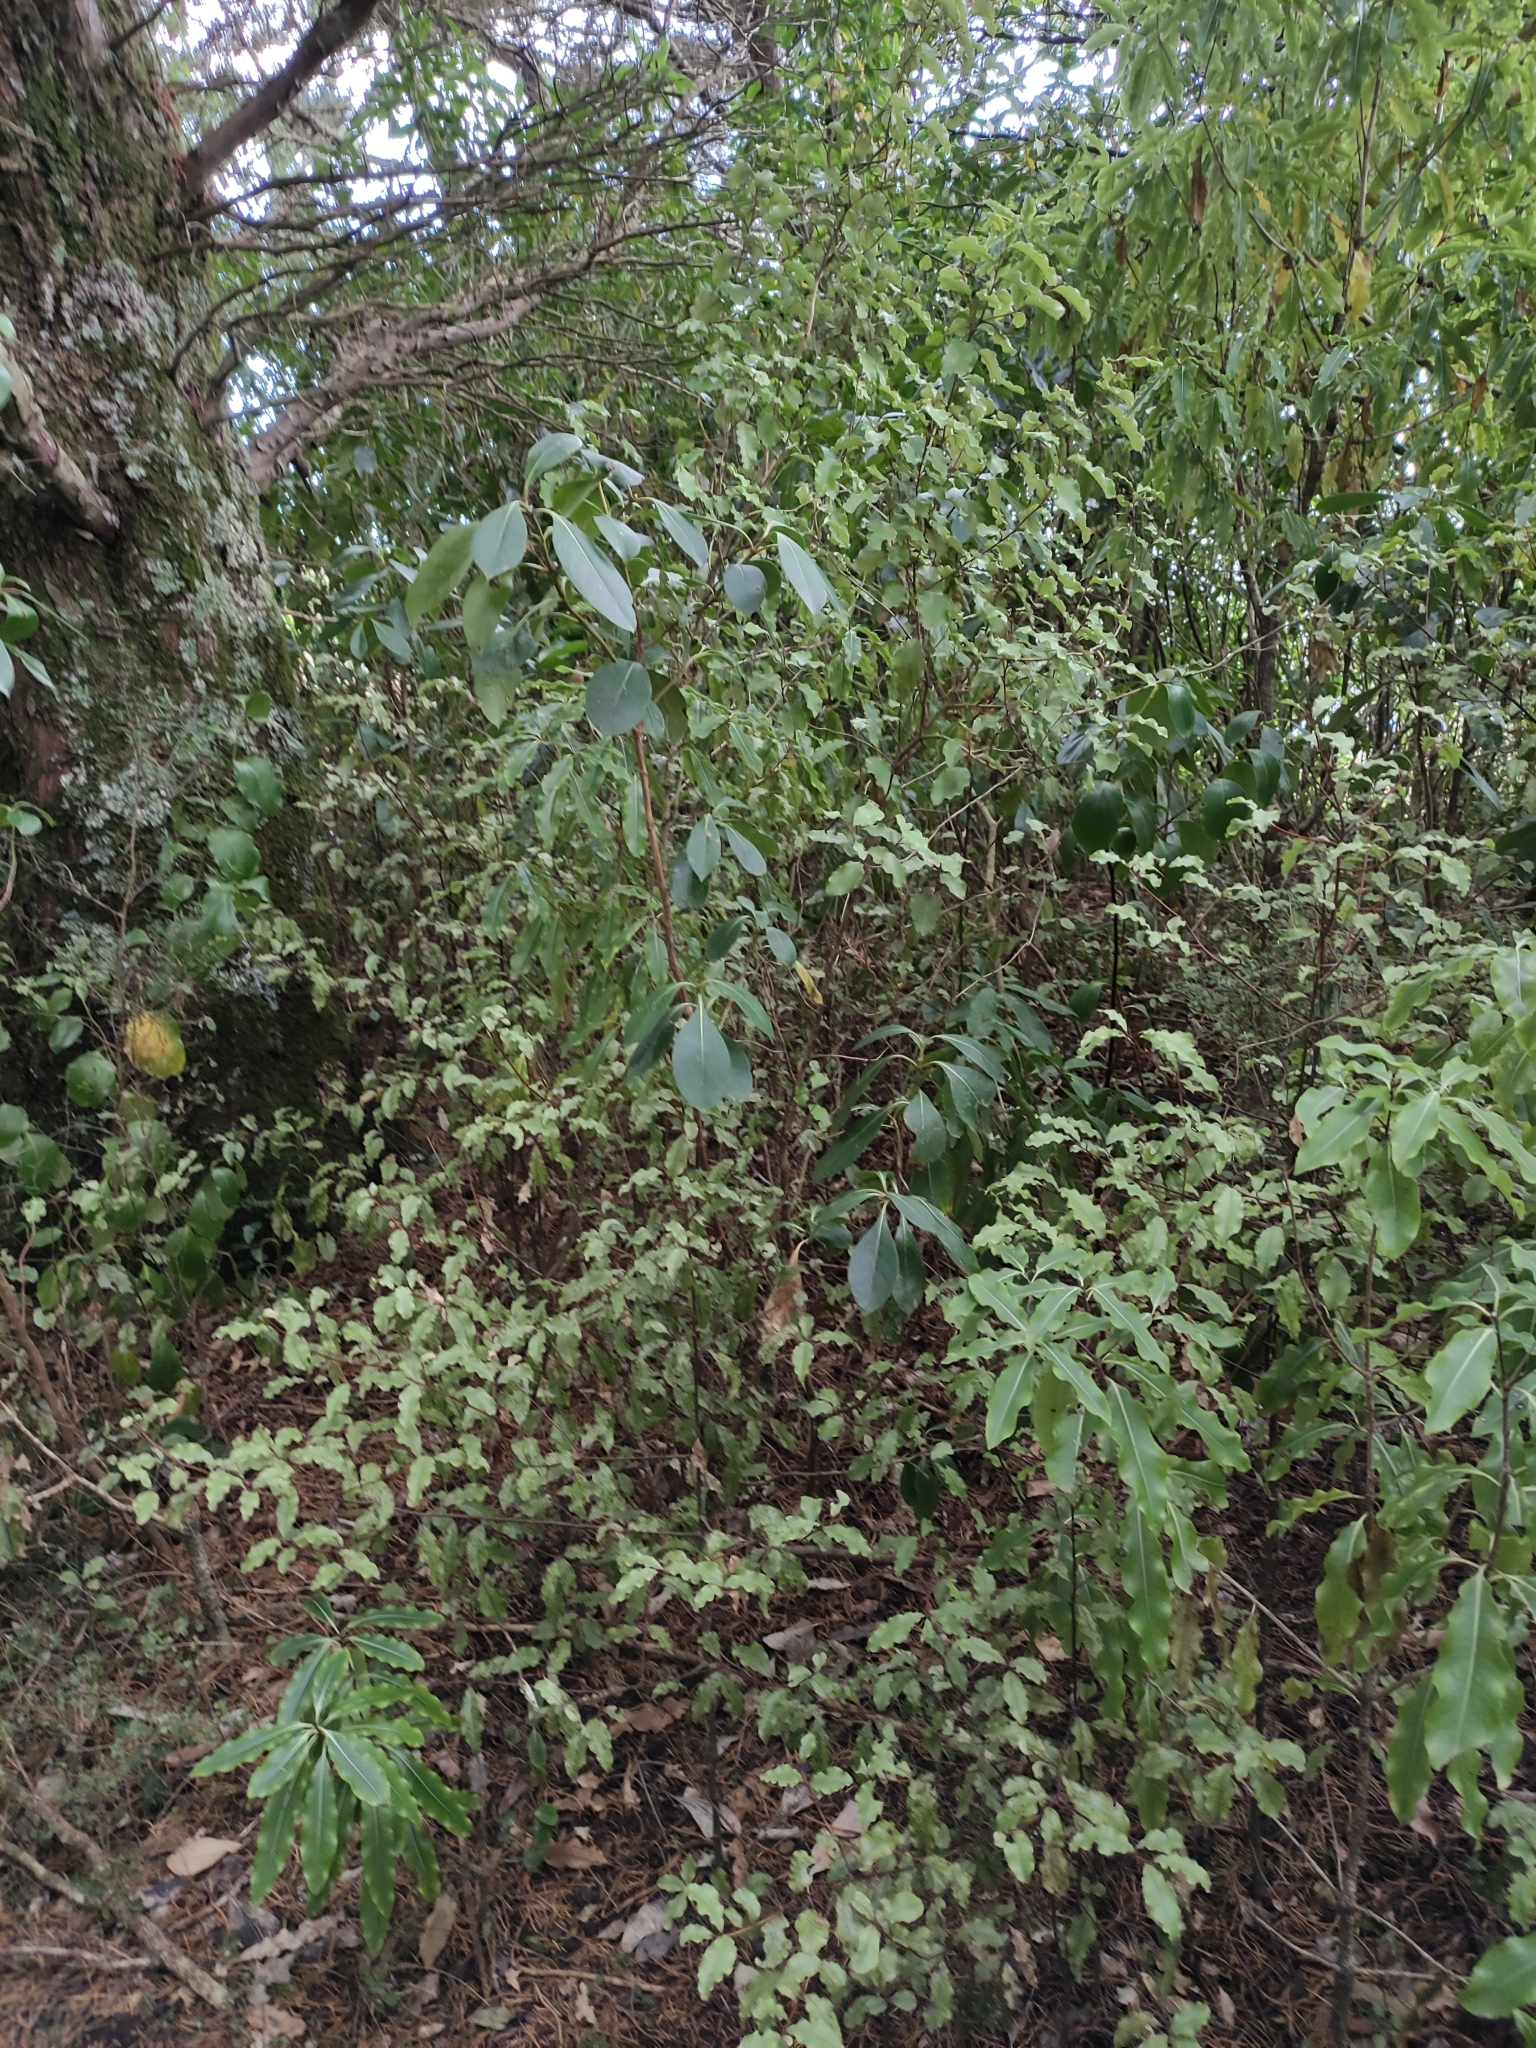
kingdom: Plantae
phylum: Tracheophyta
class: Magnoliopsida
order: Ericales
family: Primulaceae
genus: Myrsine
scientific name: Myrsine australis
